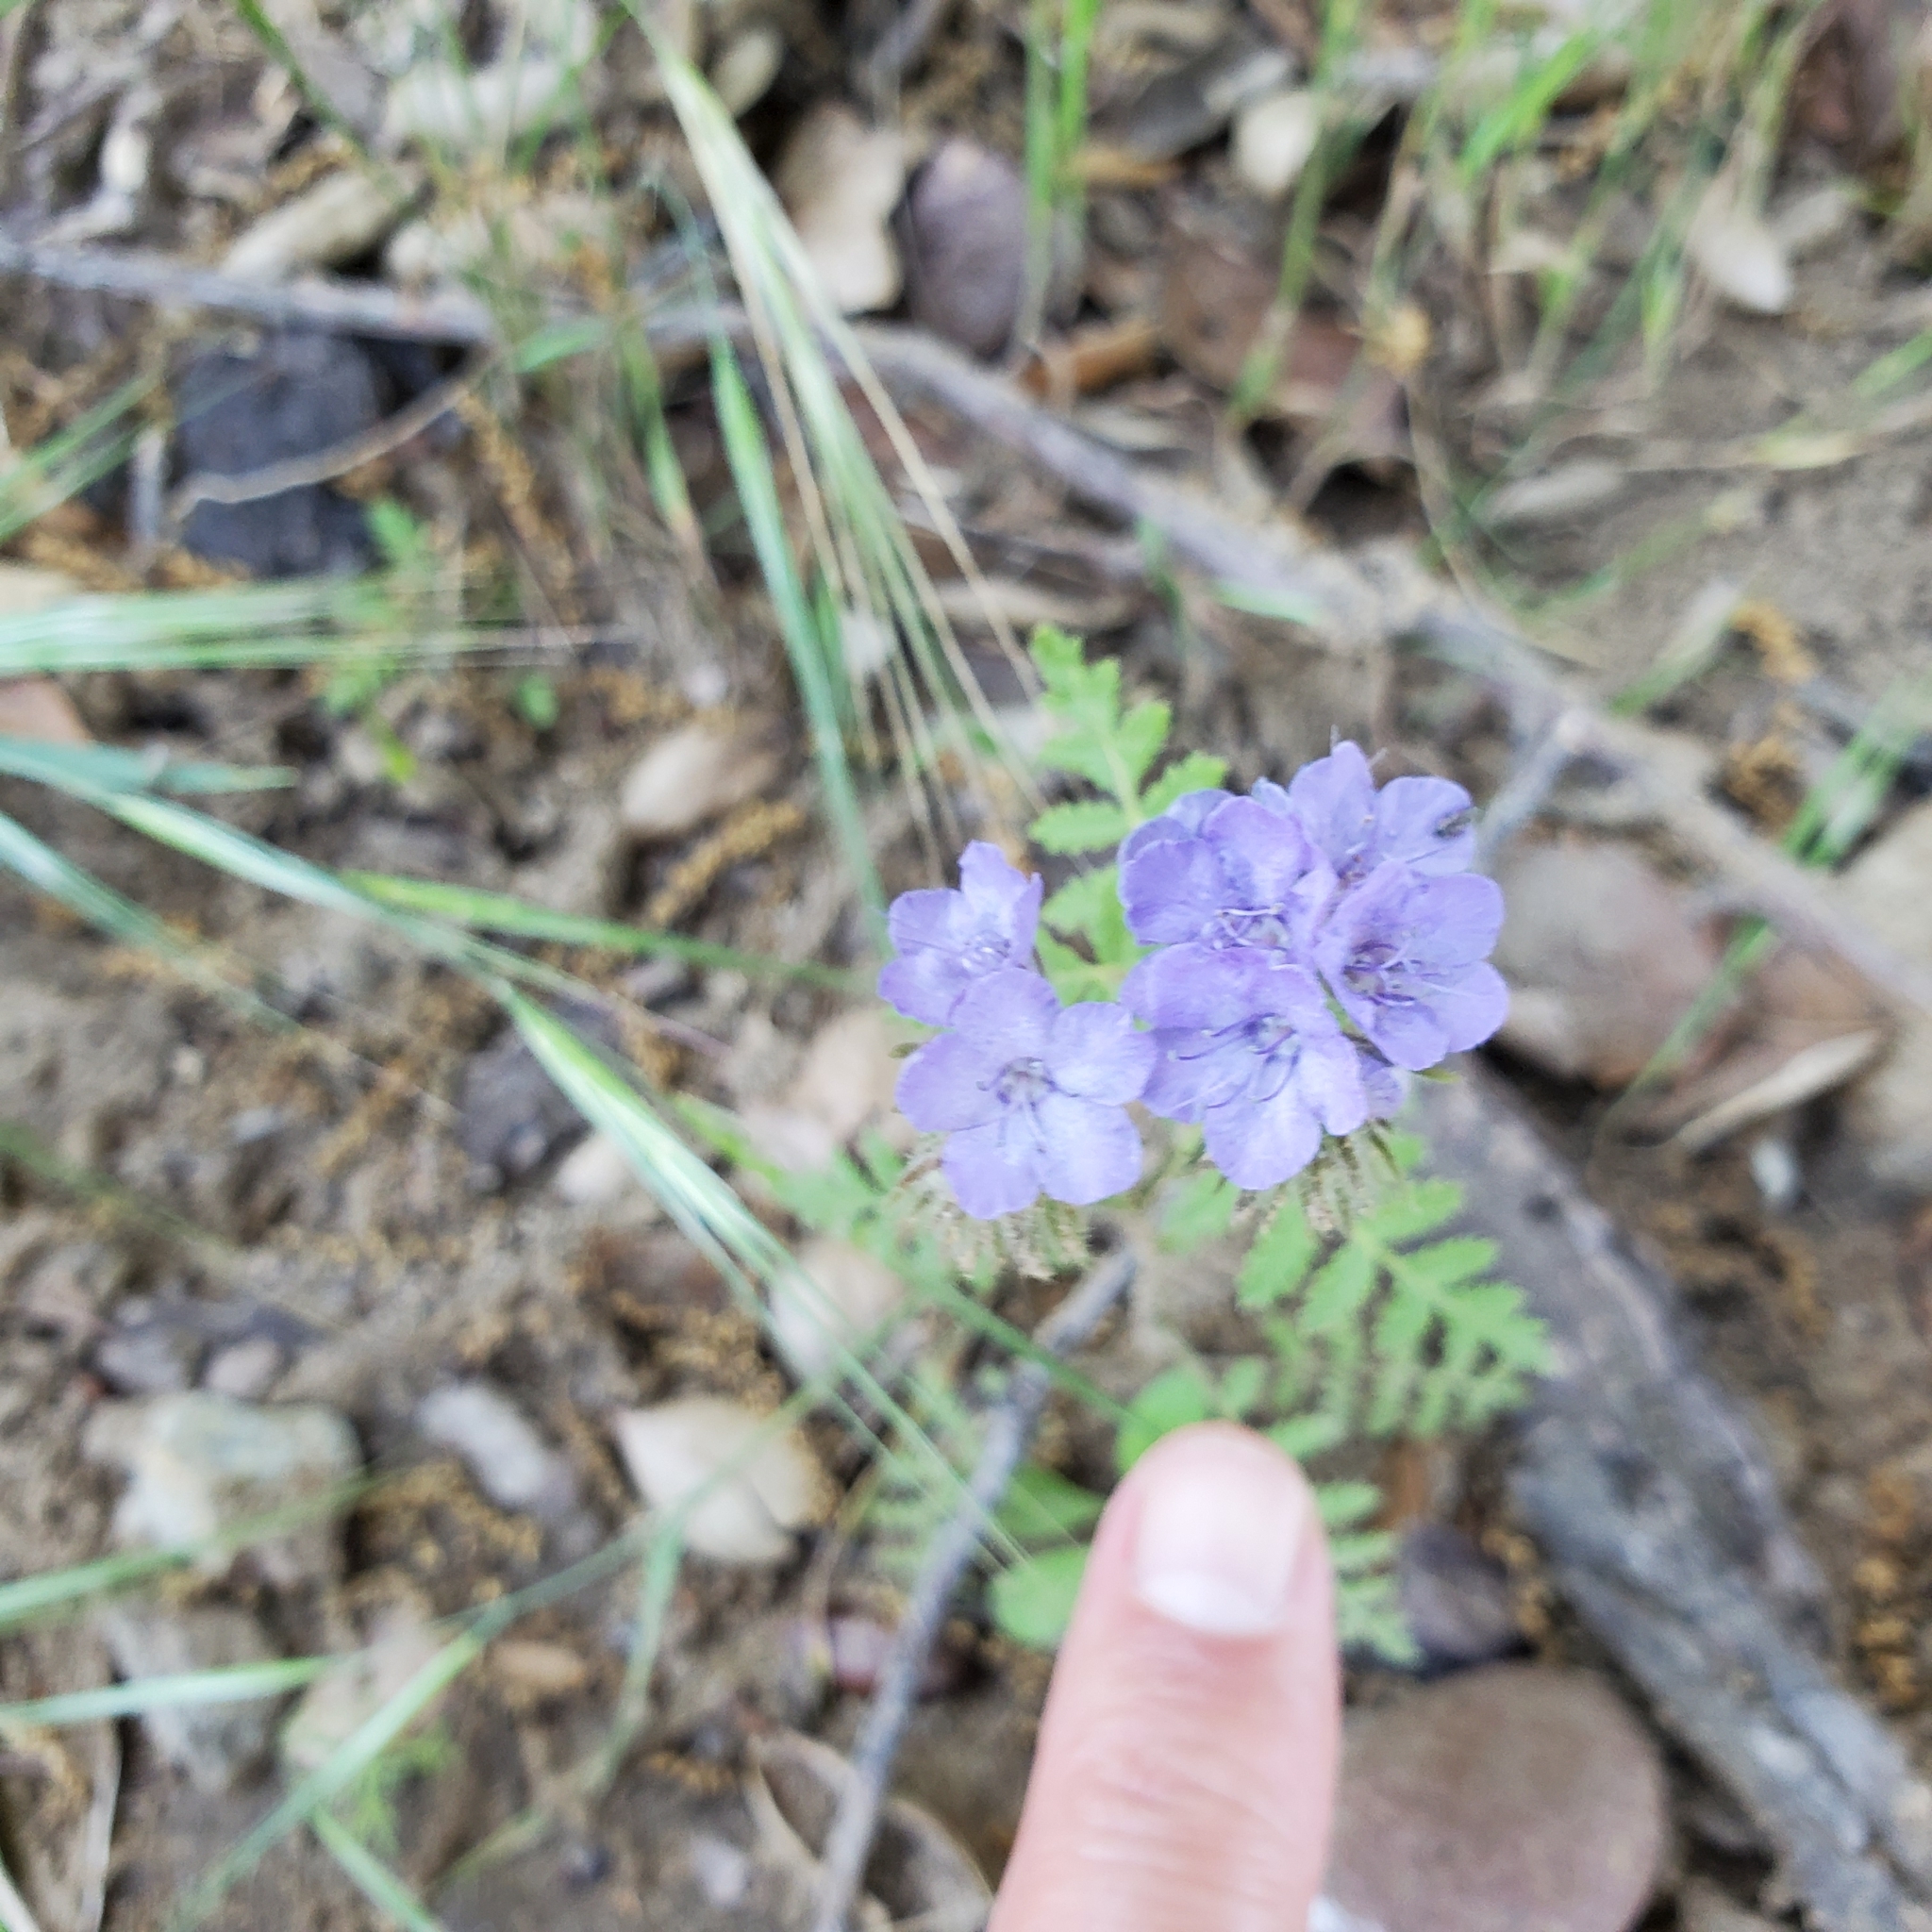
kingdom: Plantae
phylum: Tracheophyta
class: Magnoliopsida
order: Boraginales
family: Hydrophyllaceae
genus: Phacelia
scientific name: Phacelia distans
